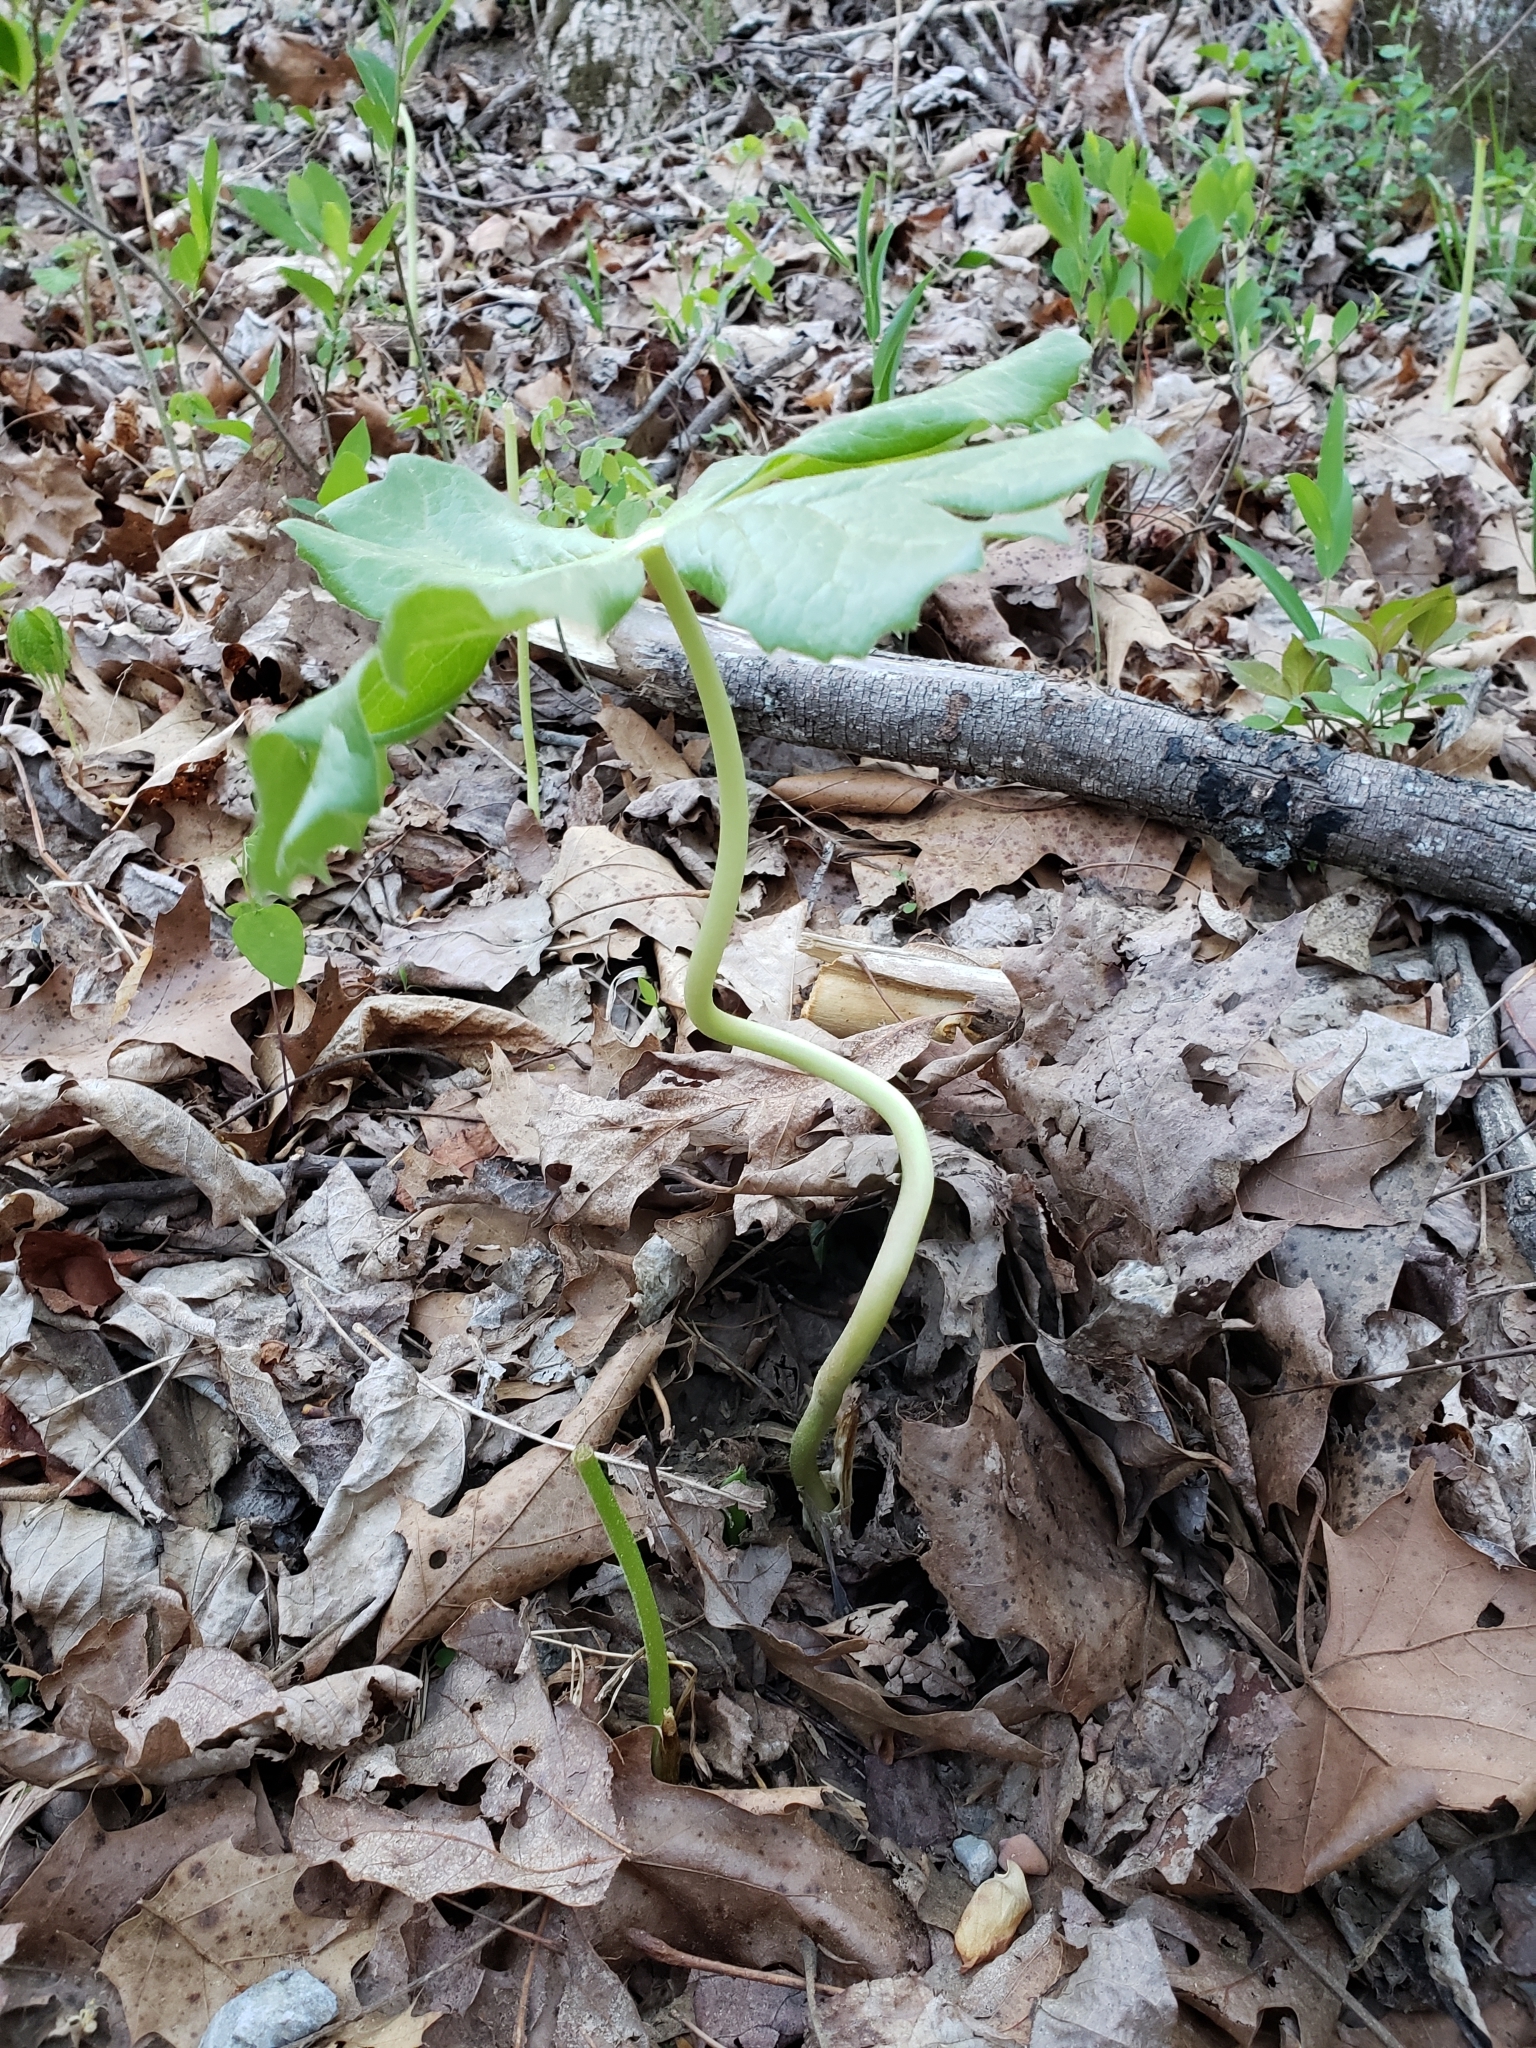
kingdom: Plantae
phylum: Tracheophyta
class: Magnoliopsida
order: Ranunculales
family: Berberidaceae
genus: Podophyllum
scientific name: Podophyllum peltatum
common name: Wild mandrake
